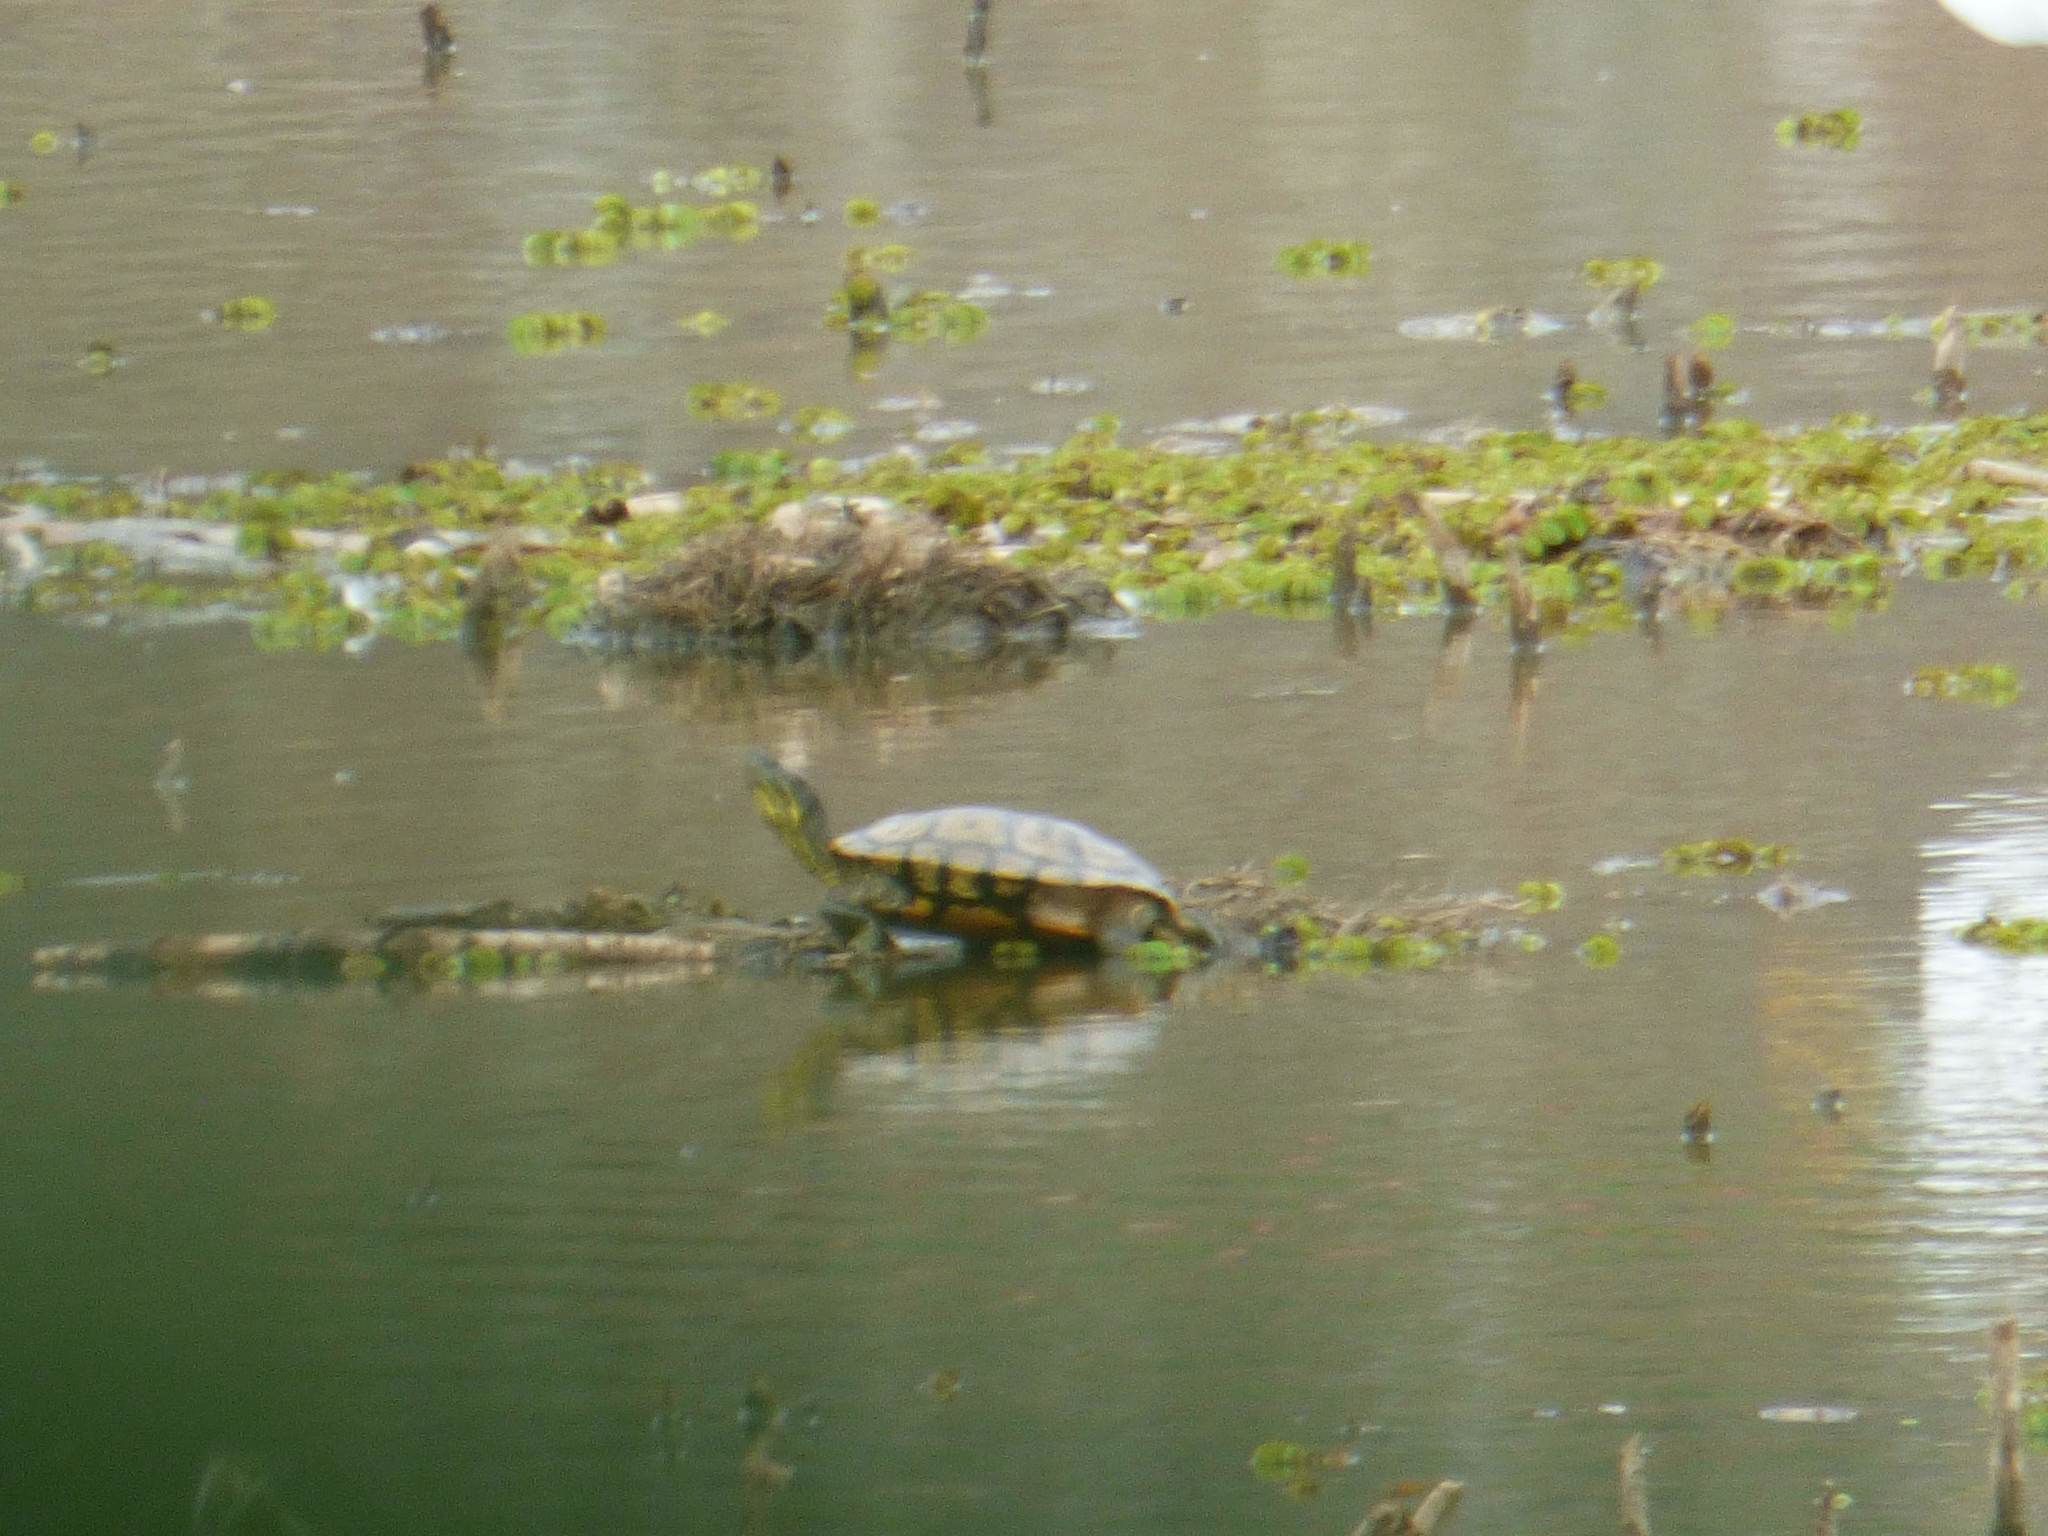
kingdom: Animalia
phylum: Chordata
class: Testudines
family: Emydidae
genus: Trachemys
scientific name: Trachemys scripta
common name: Slider
